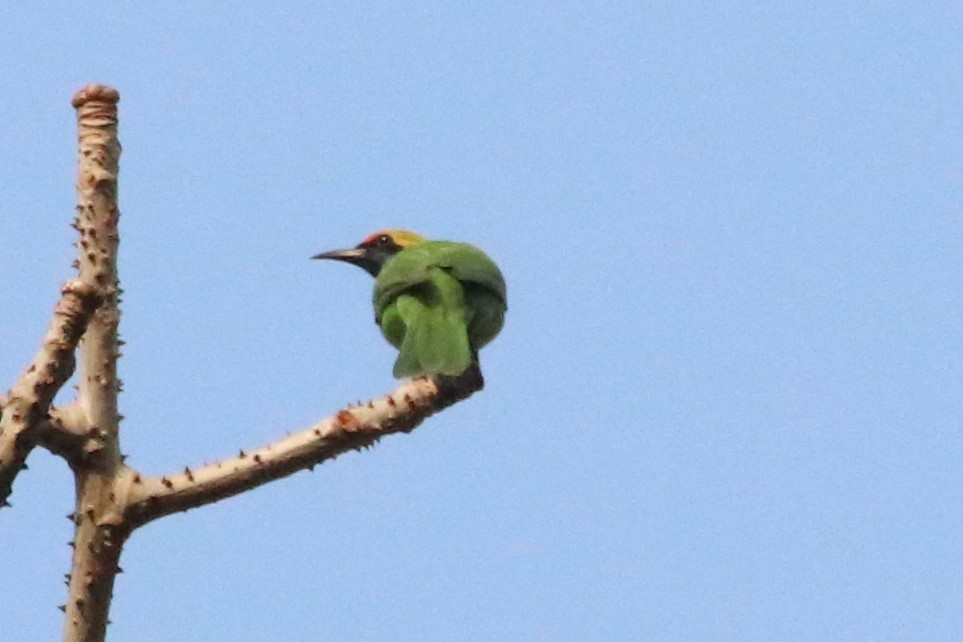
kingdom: Animalia
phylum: Chordata
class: Aves
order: Passeriformes
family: Chloropseidae
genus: Chloropsis
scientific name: Chloropsis aurifrons
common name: Golden-fronted leafbird
